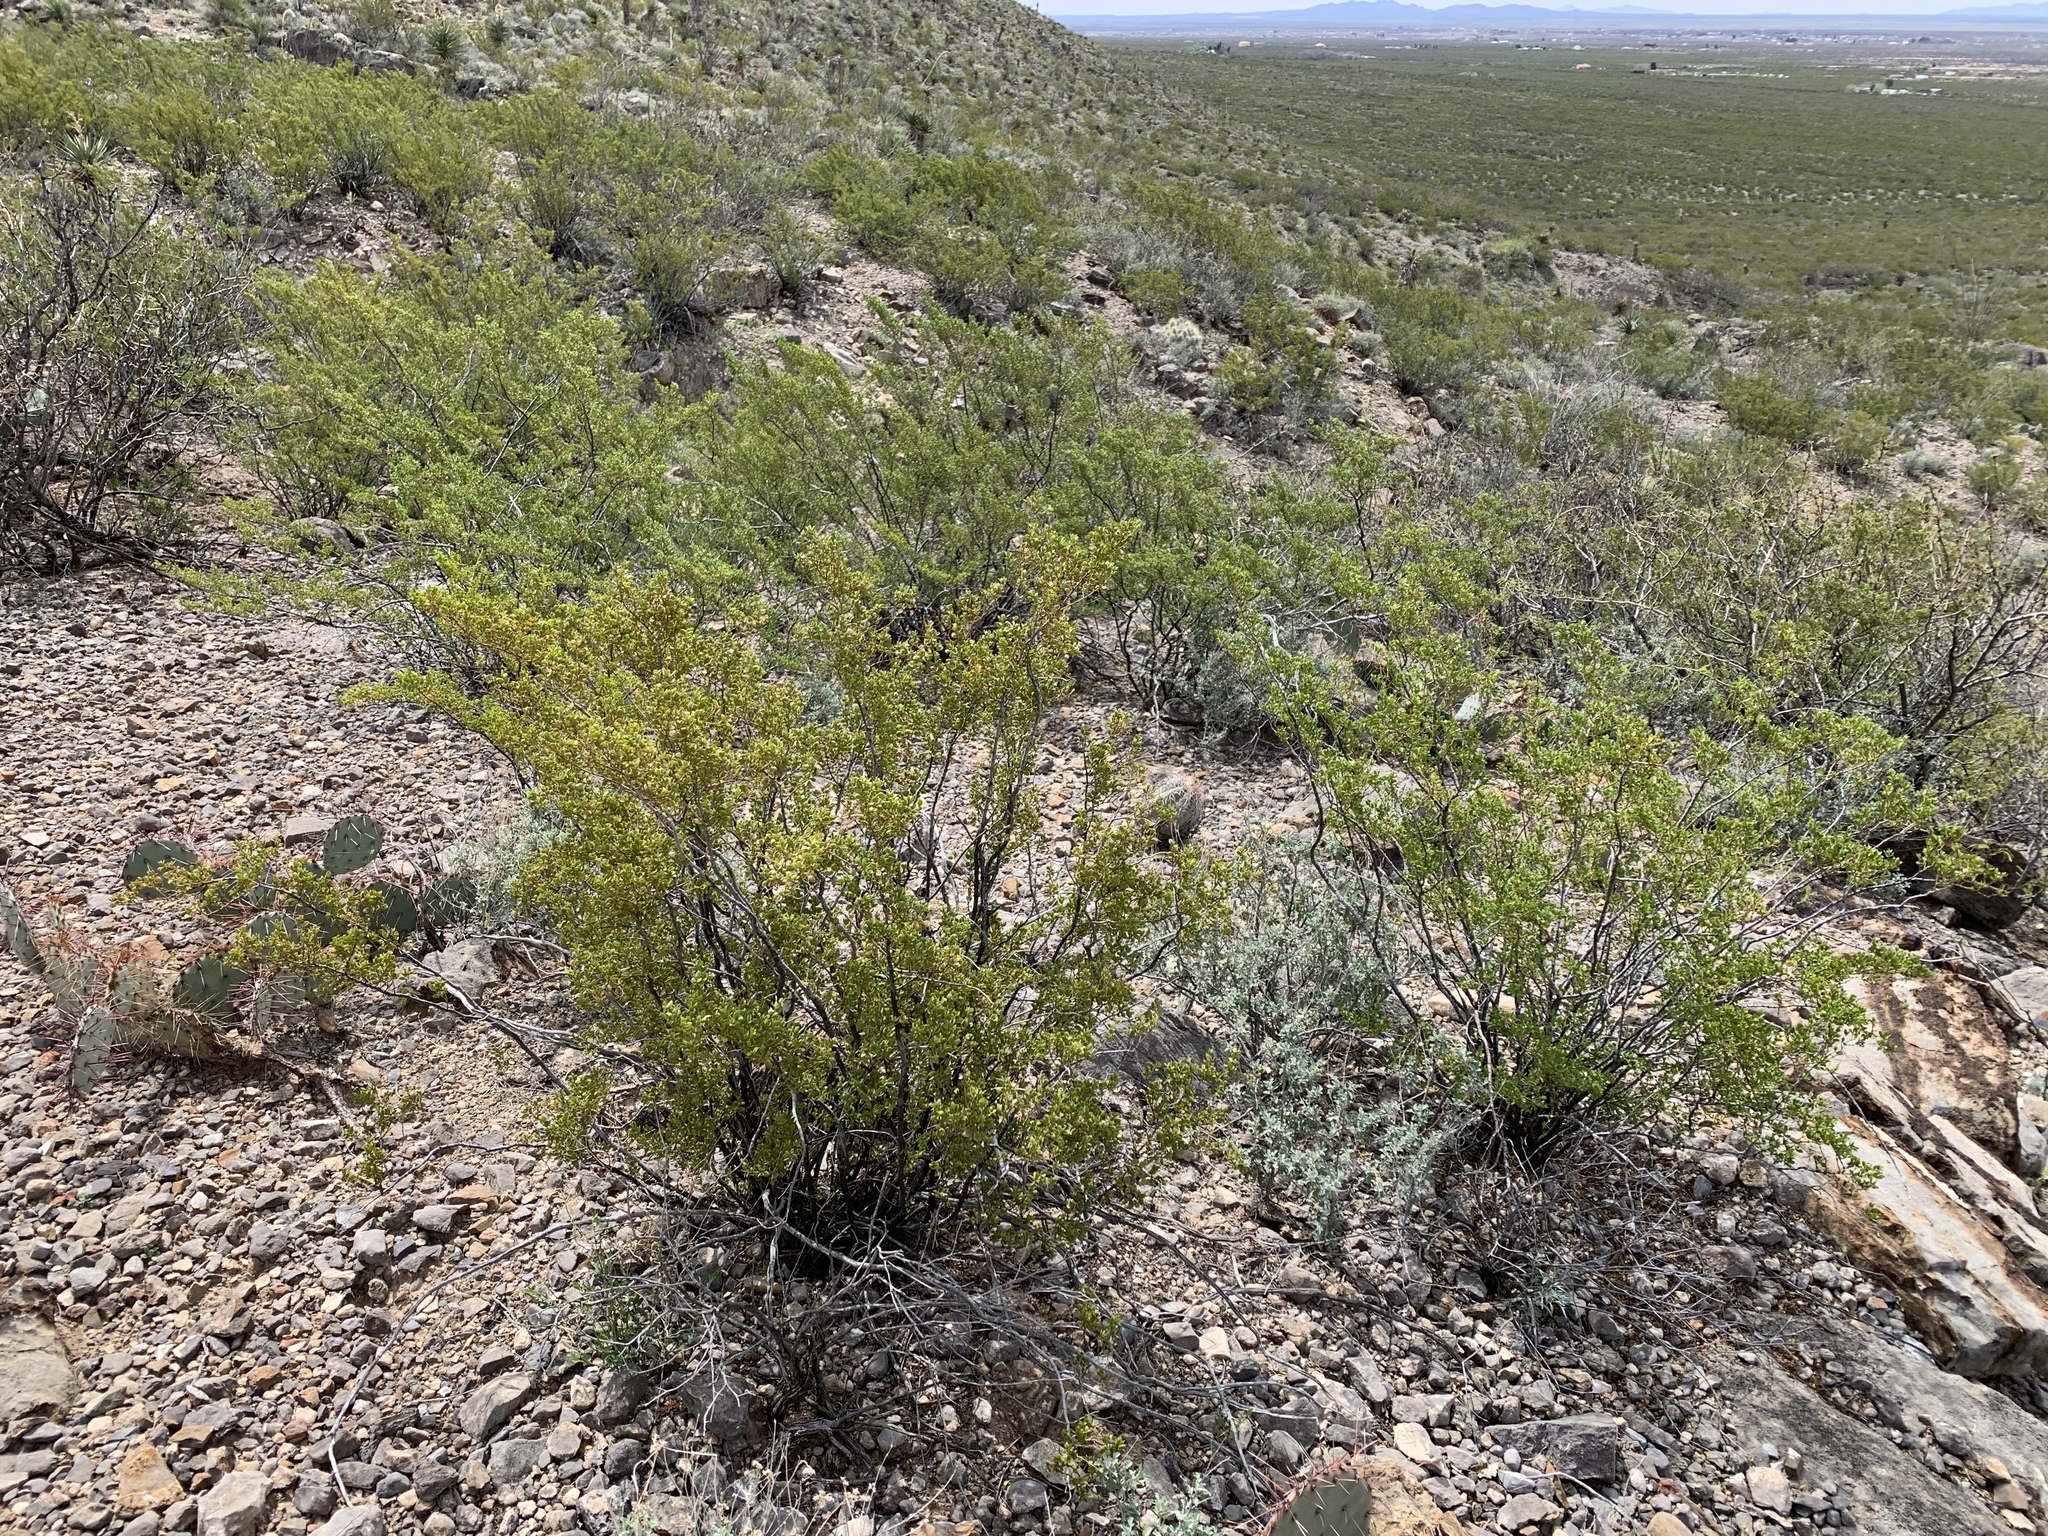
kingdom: Plantae
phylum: Tracheophyta
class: Magnoliopsida
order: Zygophyllales
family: Zygophyllaceae
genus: Larrea
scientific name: Larrea tridentata
